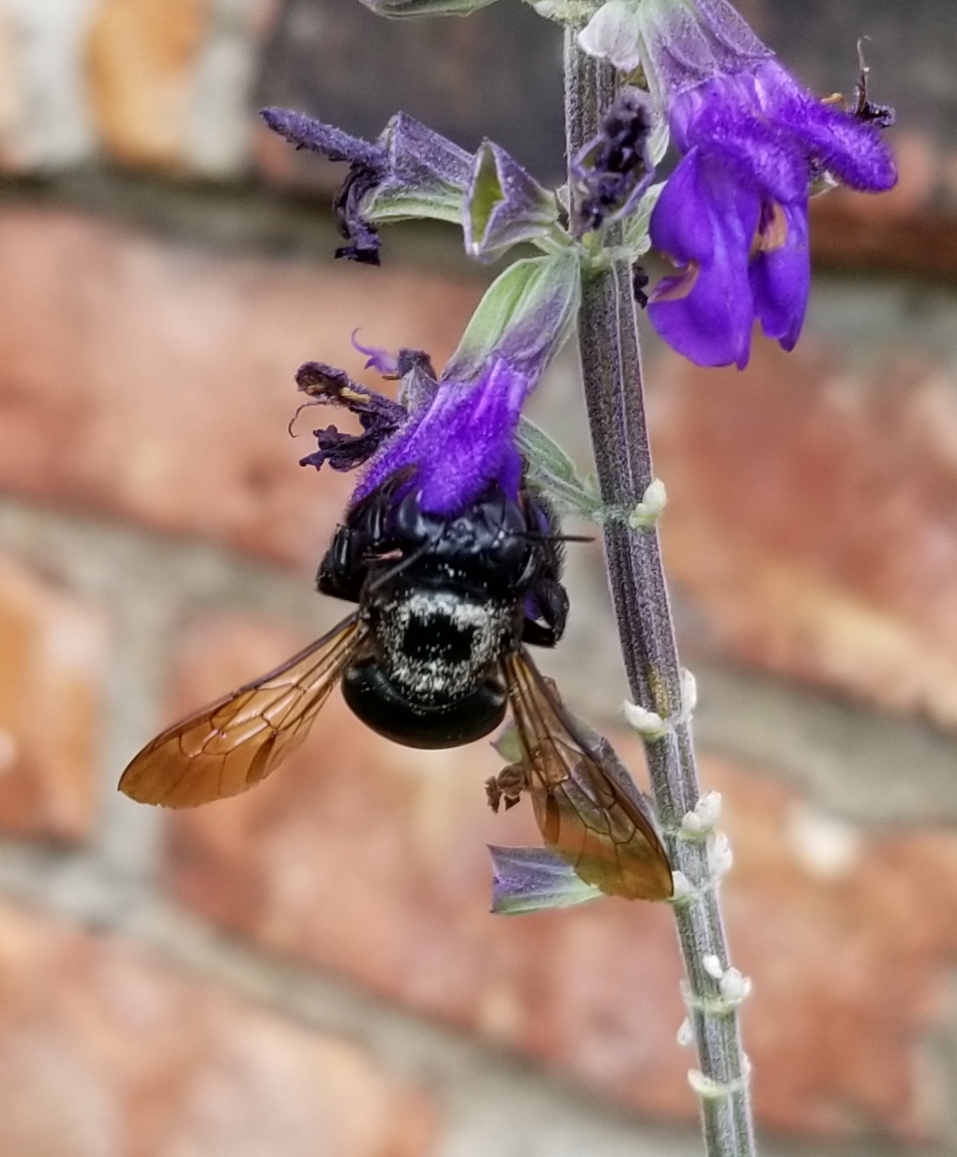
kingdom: Animalia
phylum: Arthropoda
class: Insecta
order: Hymenoptera
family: Apidae
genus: Xylocopa
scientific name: Xylocopa virginica
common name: Carpenter bee
